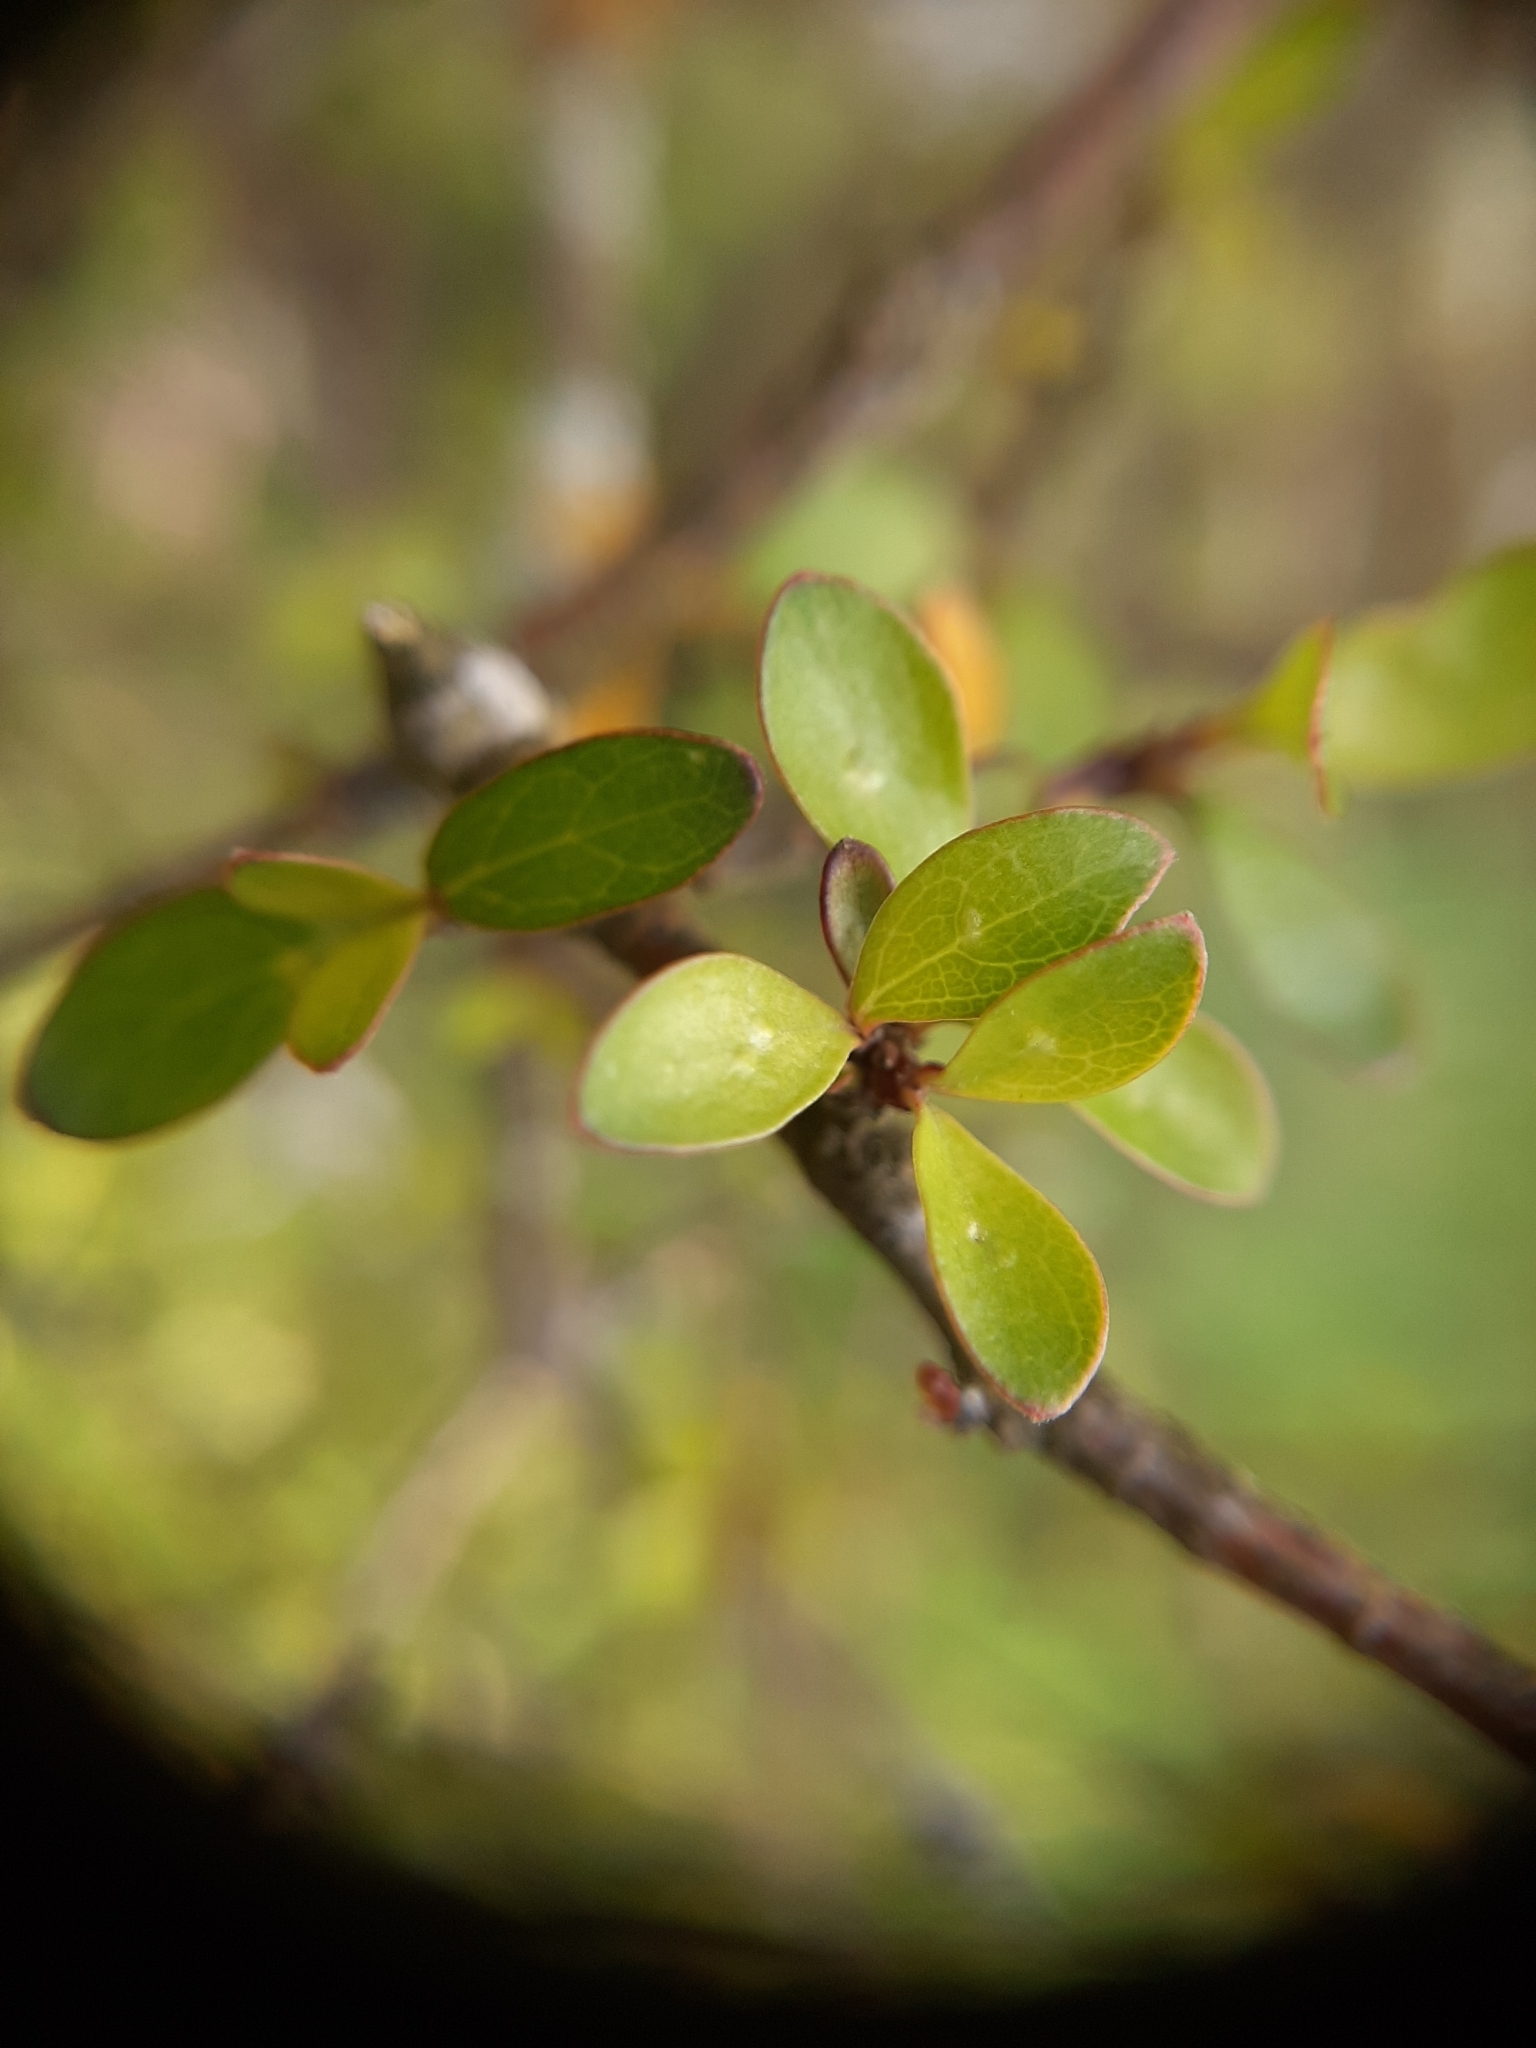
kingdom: Plantae
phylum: Tracheophyta
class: Magnoliopsida
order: Gentianales
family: Rubiaceae
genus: Coprosma
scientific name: Coprosma rigida
